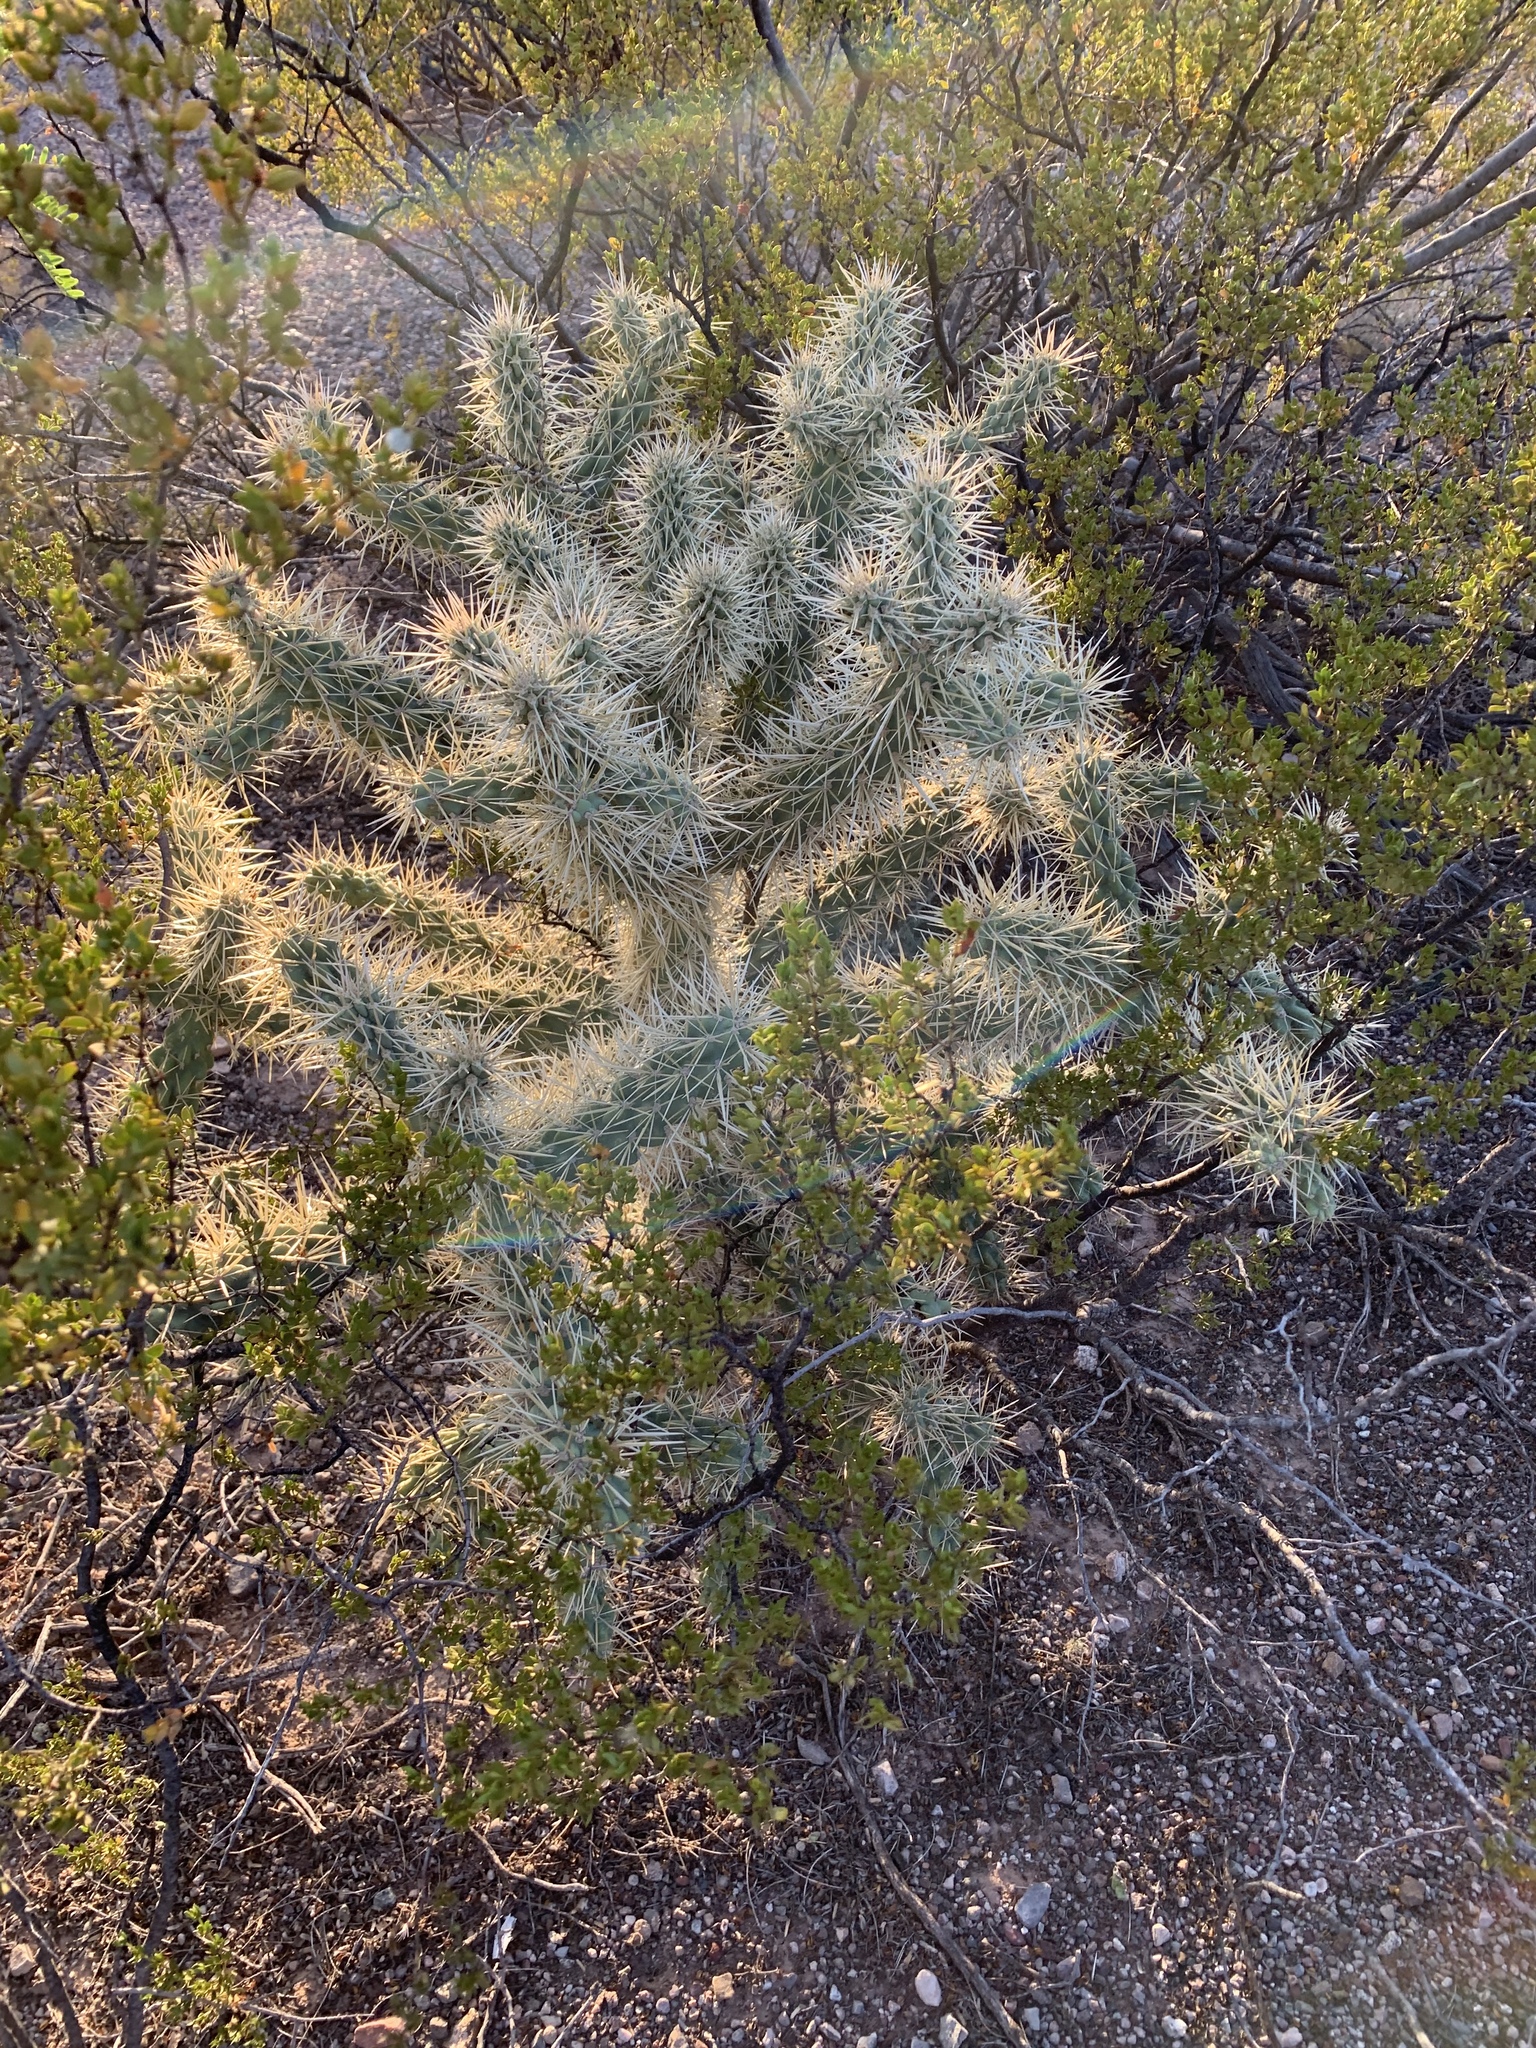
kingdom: Plantae
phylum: Tracheophyta
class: Magnoliopsida
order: Caryophyllales
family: Cactaceae
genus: Cylindropuntia
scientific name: Cylindropuntia fulgida
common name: Jumping cholla
